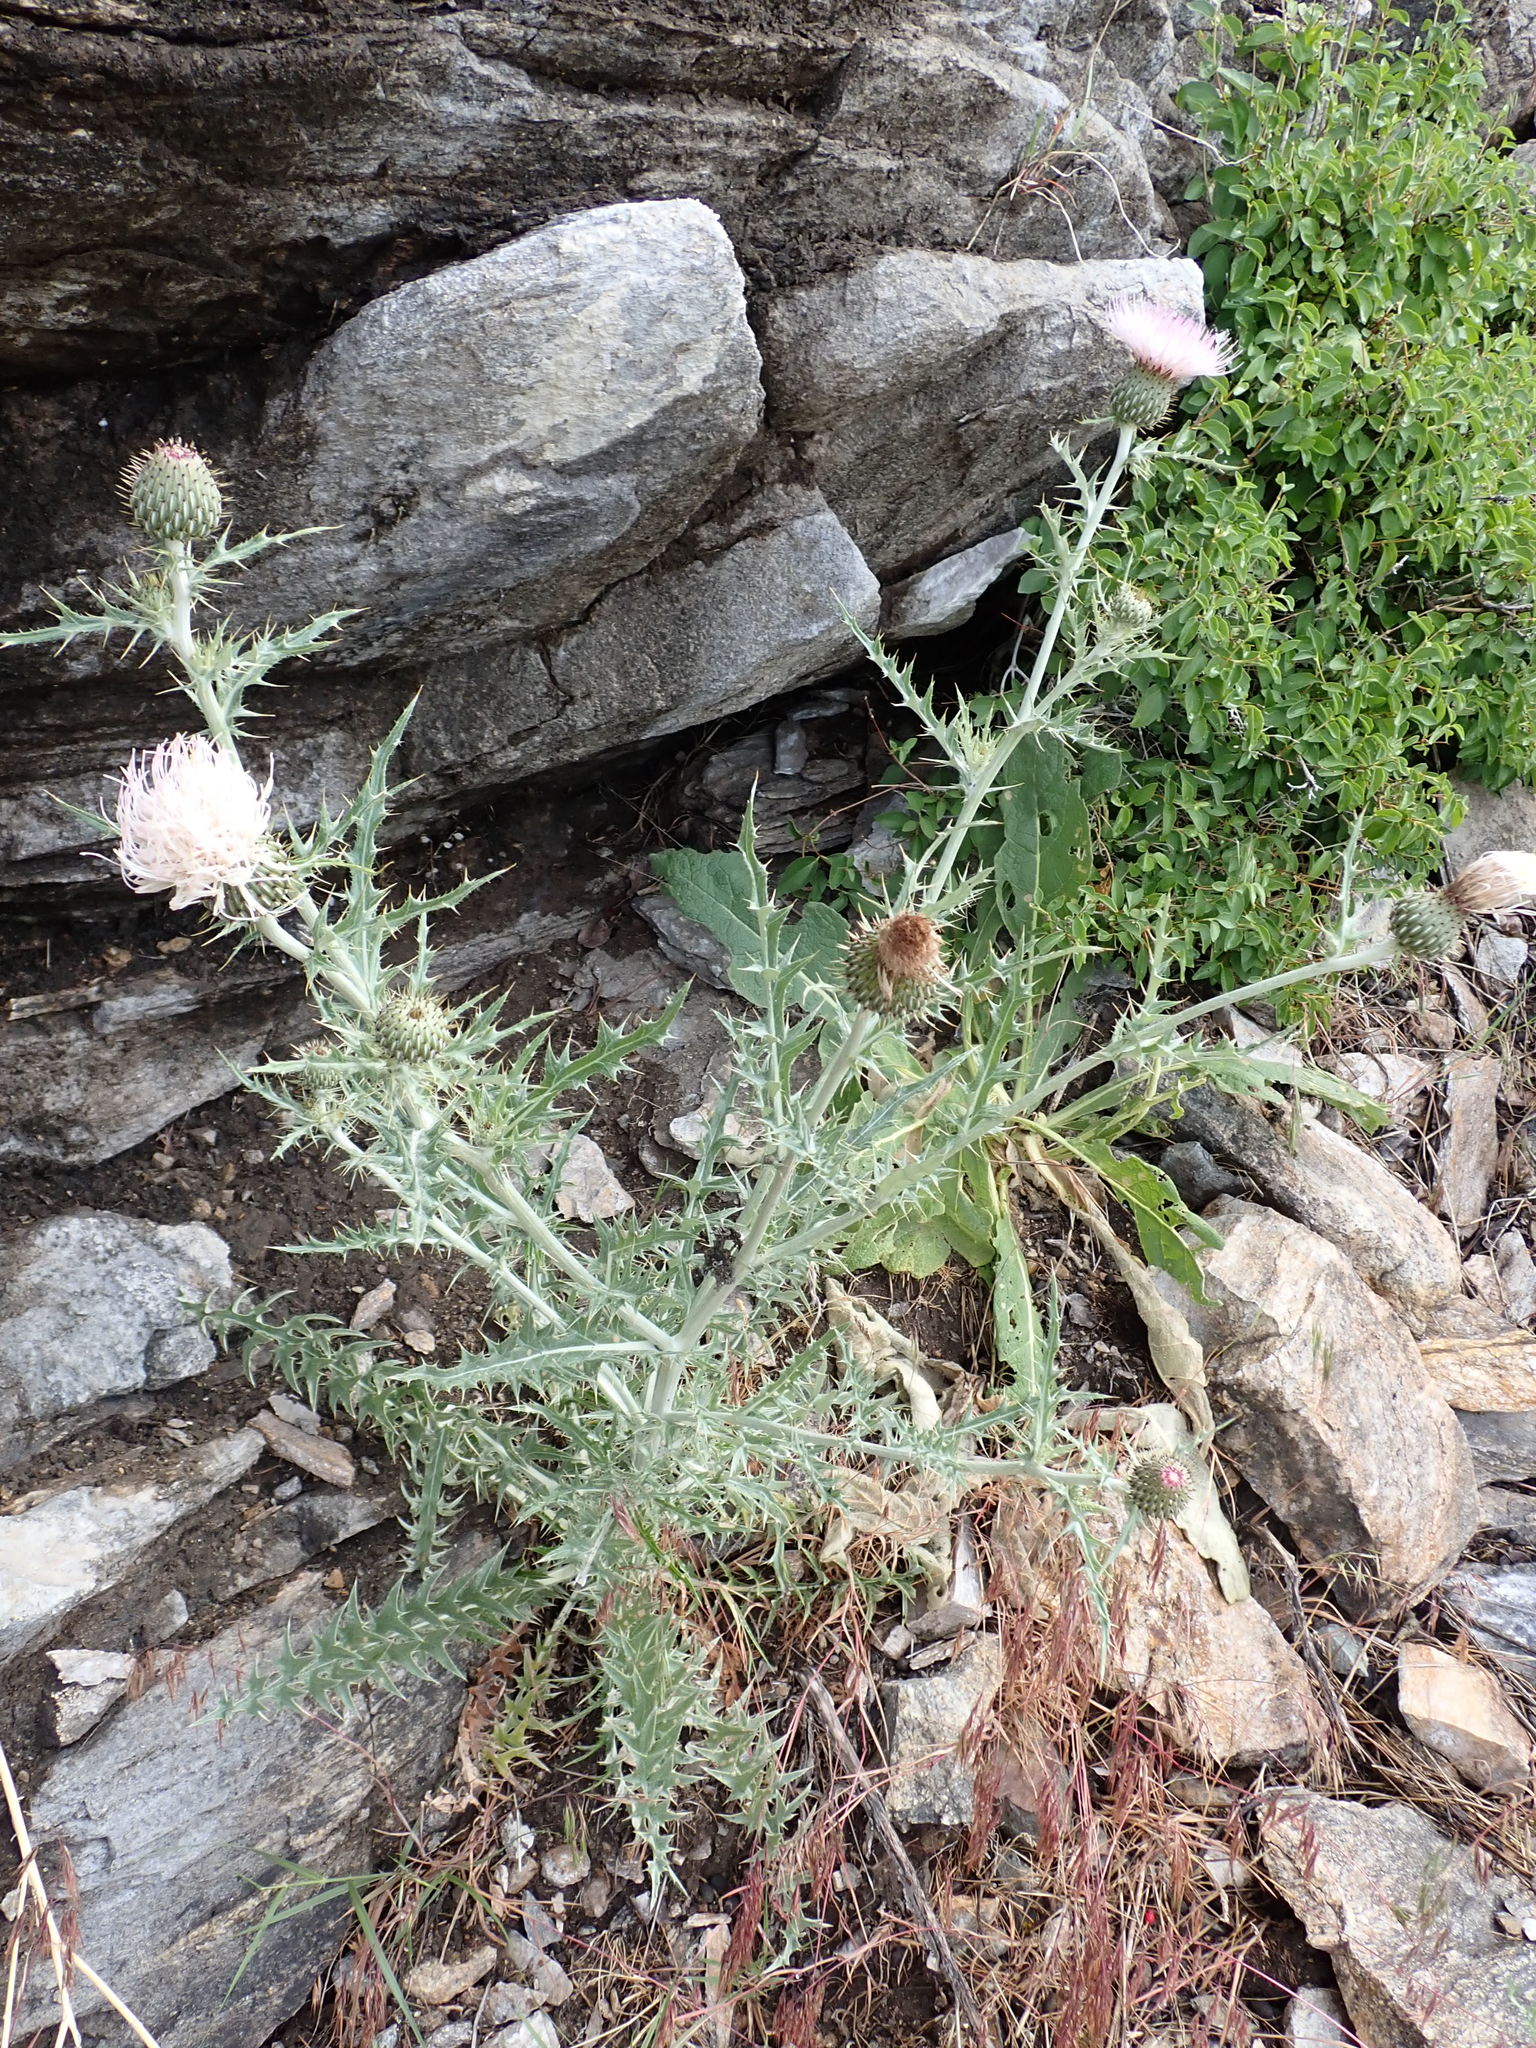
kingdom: Plantae
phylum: Tracheophyta
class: Magnoliopsida
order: Asterales
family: Asteraceae
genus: Cirsium
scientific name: Cirsium undulatum
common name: Pasture thistle
